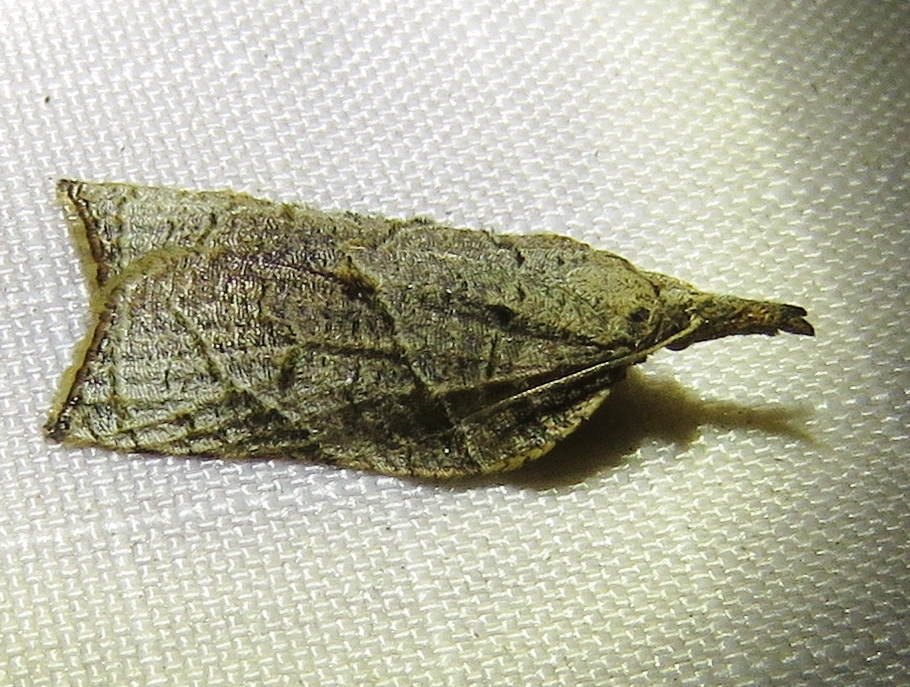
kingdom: Animalia
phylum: Arthropoda
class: Insecta
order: Lepidoptera
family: Tortricidae
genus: Platynota
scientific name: Platynota rostrana
